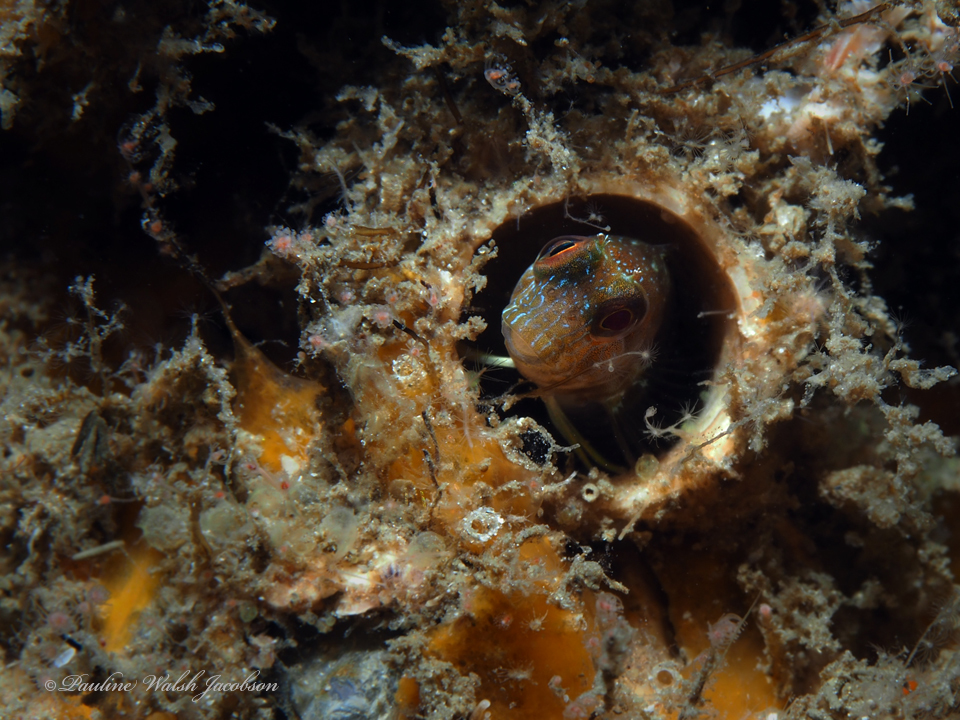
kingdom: Animalia
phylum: Chordata
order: Perciformes
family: Blenniidae
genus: Parablennius
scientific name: Parablennius marmoreus
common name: Seaweed blenny
